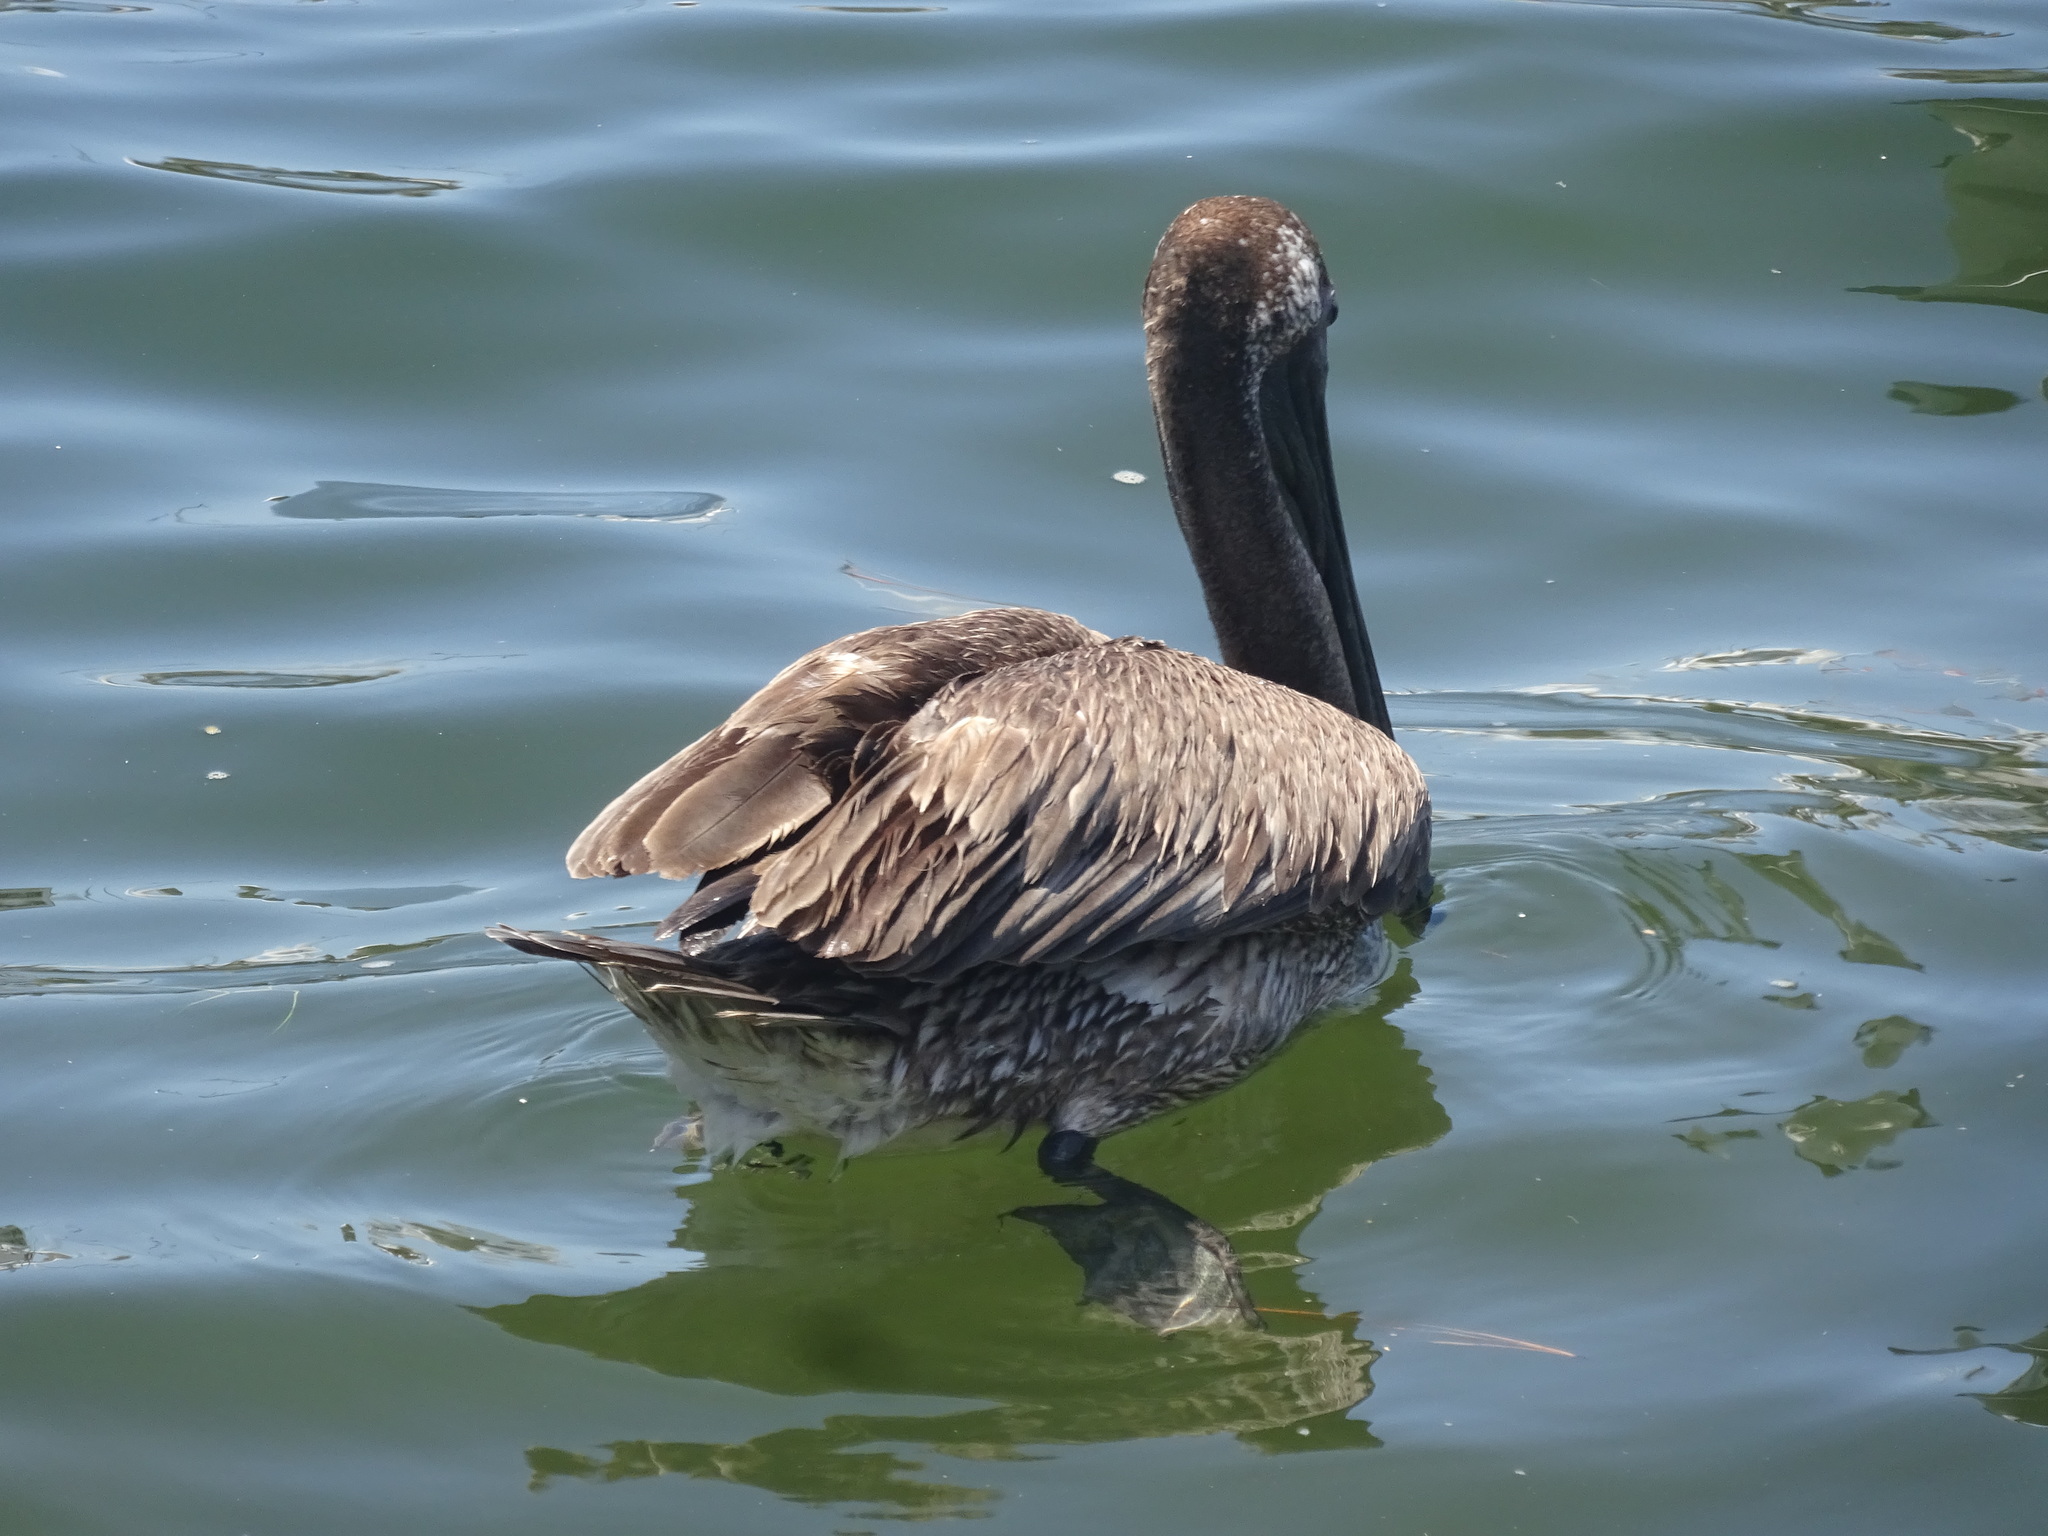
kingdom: Animalia
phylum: Chordata
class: Aves
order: Pelecaniformes
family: Pelecanidae
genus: Pelecanus
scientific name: Pelecanus occidentalis
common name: Brown pelican
